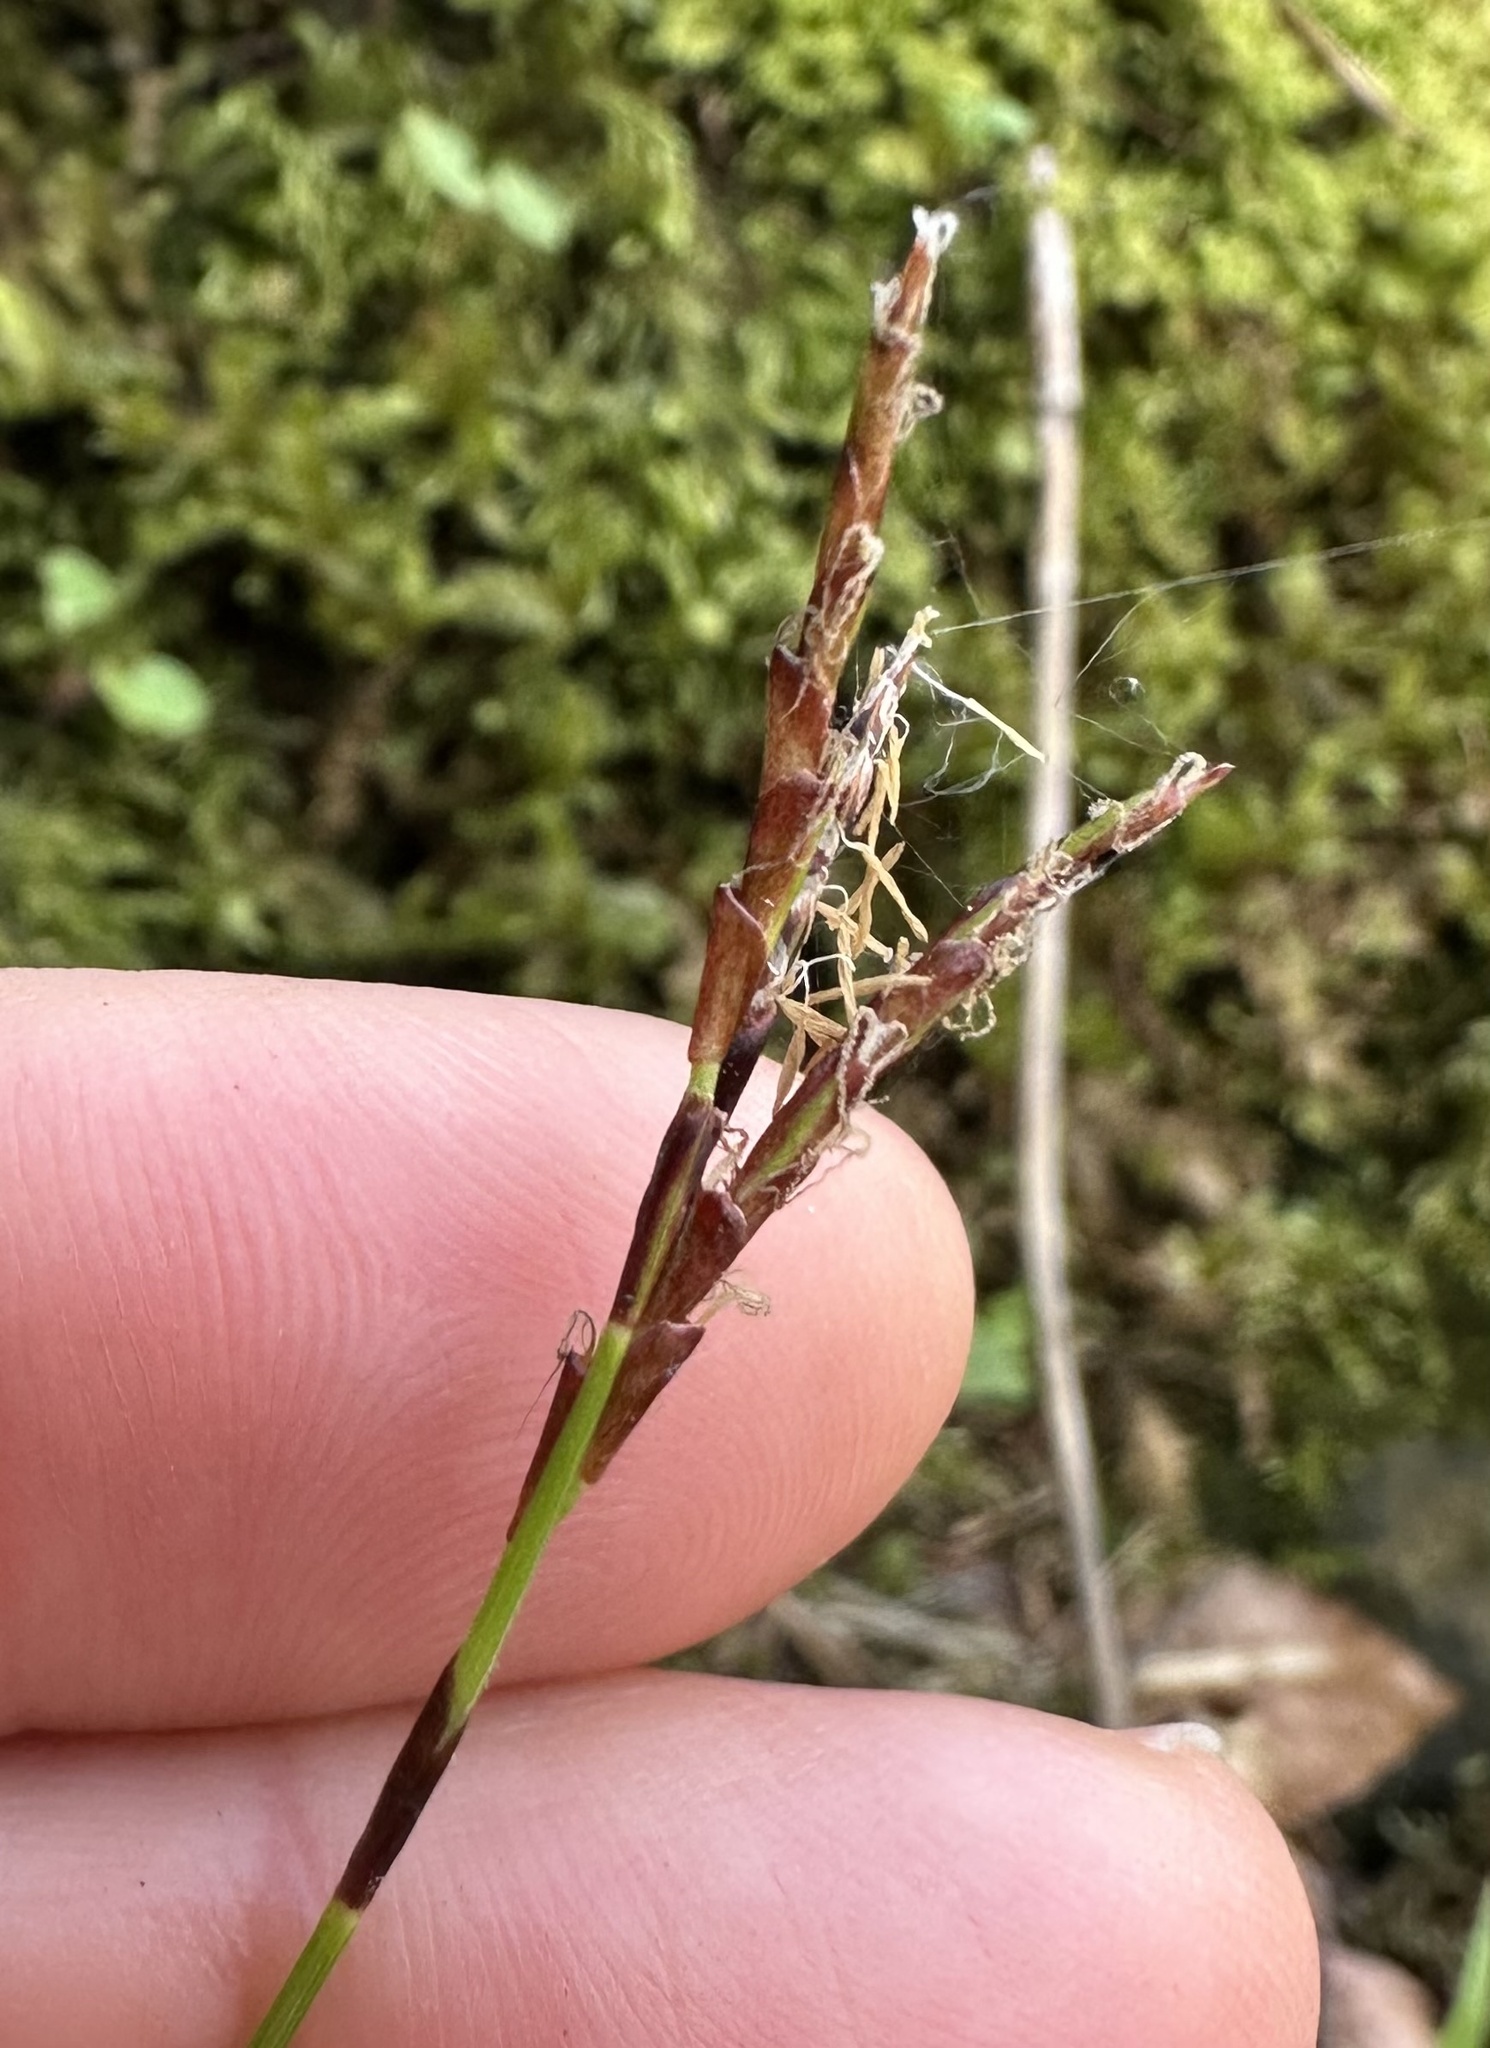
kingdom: Plantae
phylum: Tracheophyta
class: Liliopsida
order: Poales
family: Cyperaceae
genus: Carex
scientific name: Carex digitata
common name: Fingered sedge
